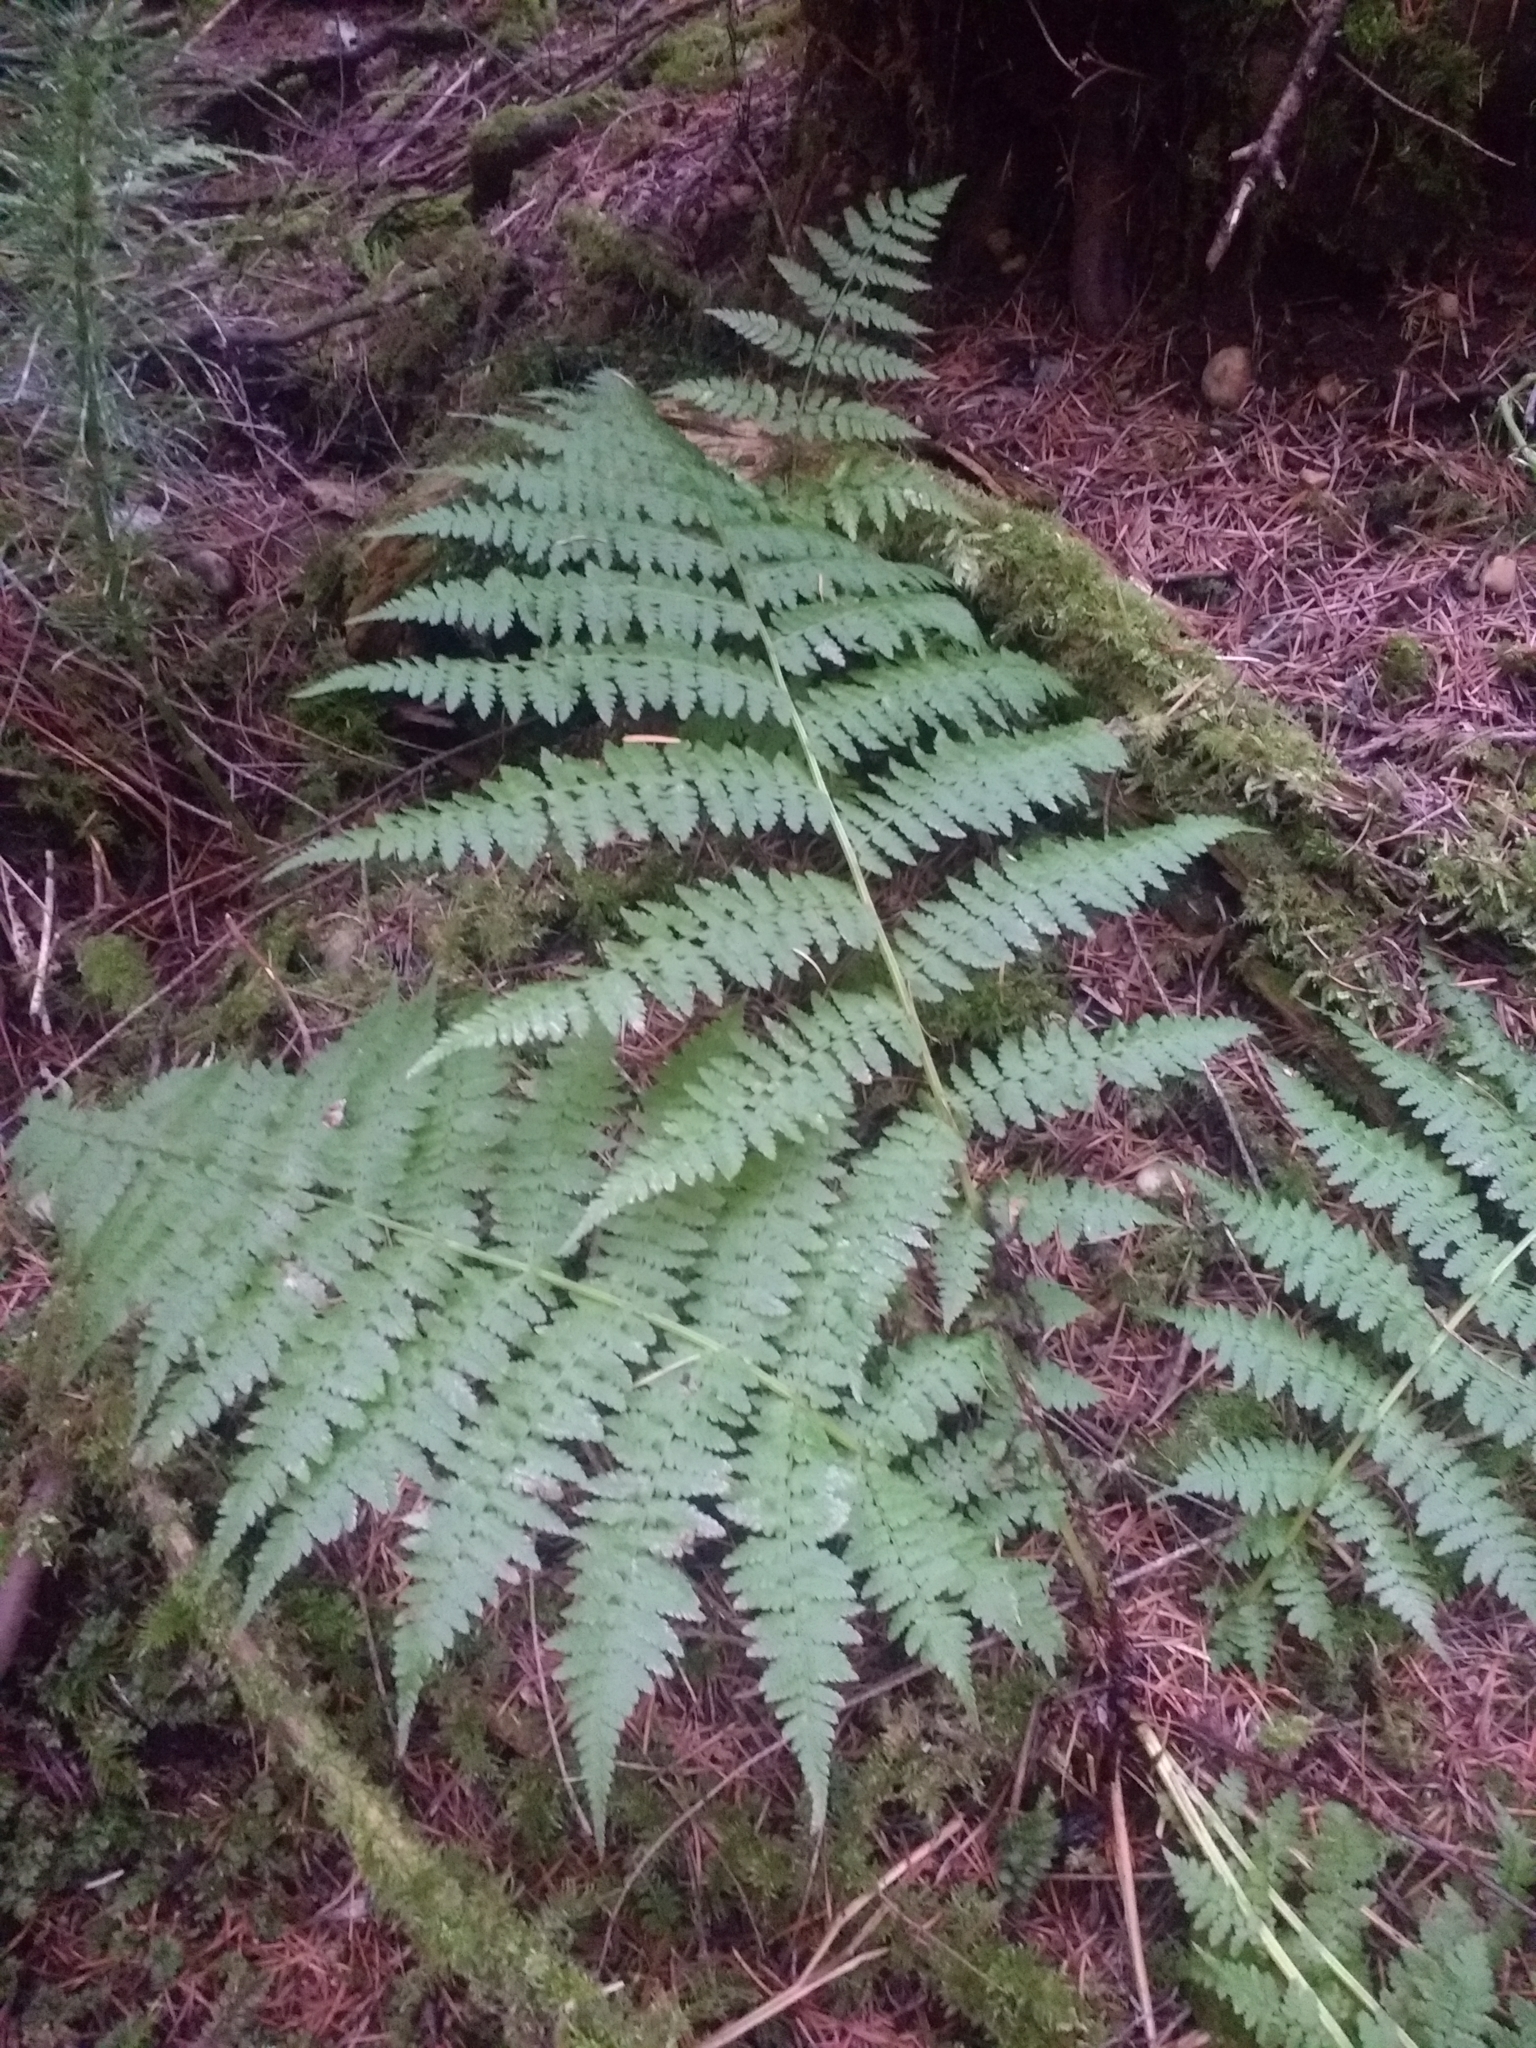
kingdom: Plantae
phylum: Tracheophyta
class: Polypodiopsida
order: Polypodiales
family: Athyriaceae
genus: Athyrium
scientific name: Athyrium filix-femina
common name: Lady fern
